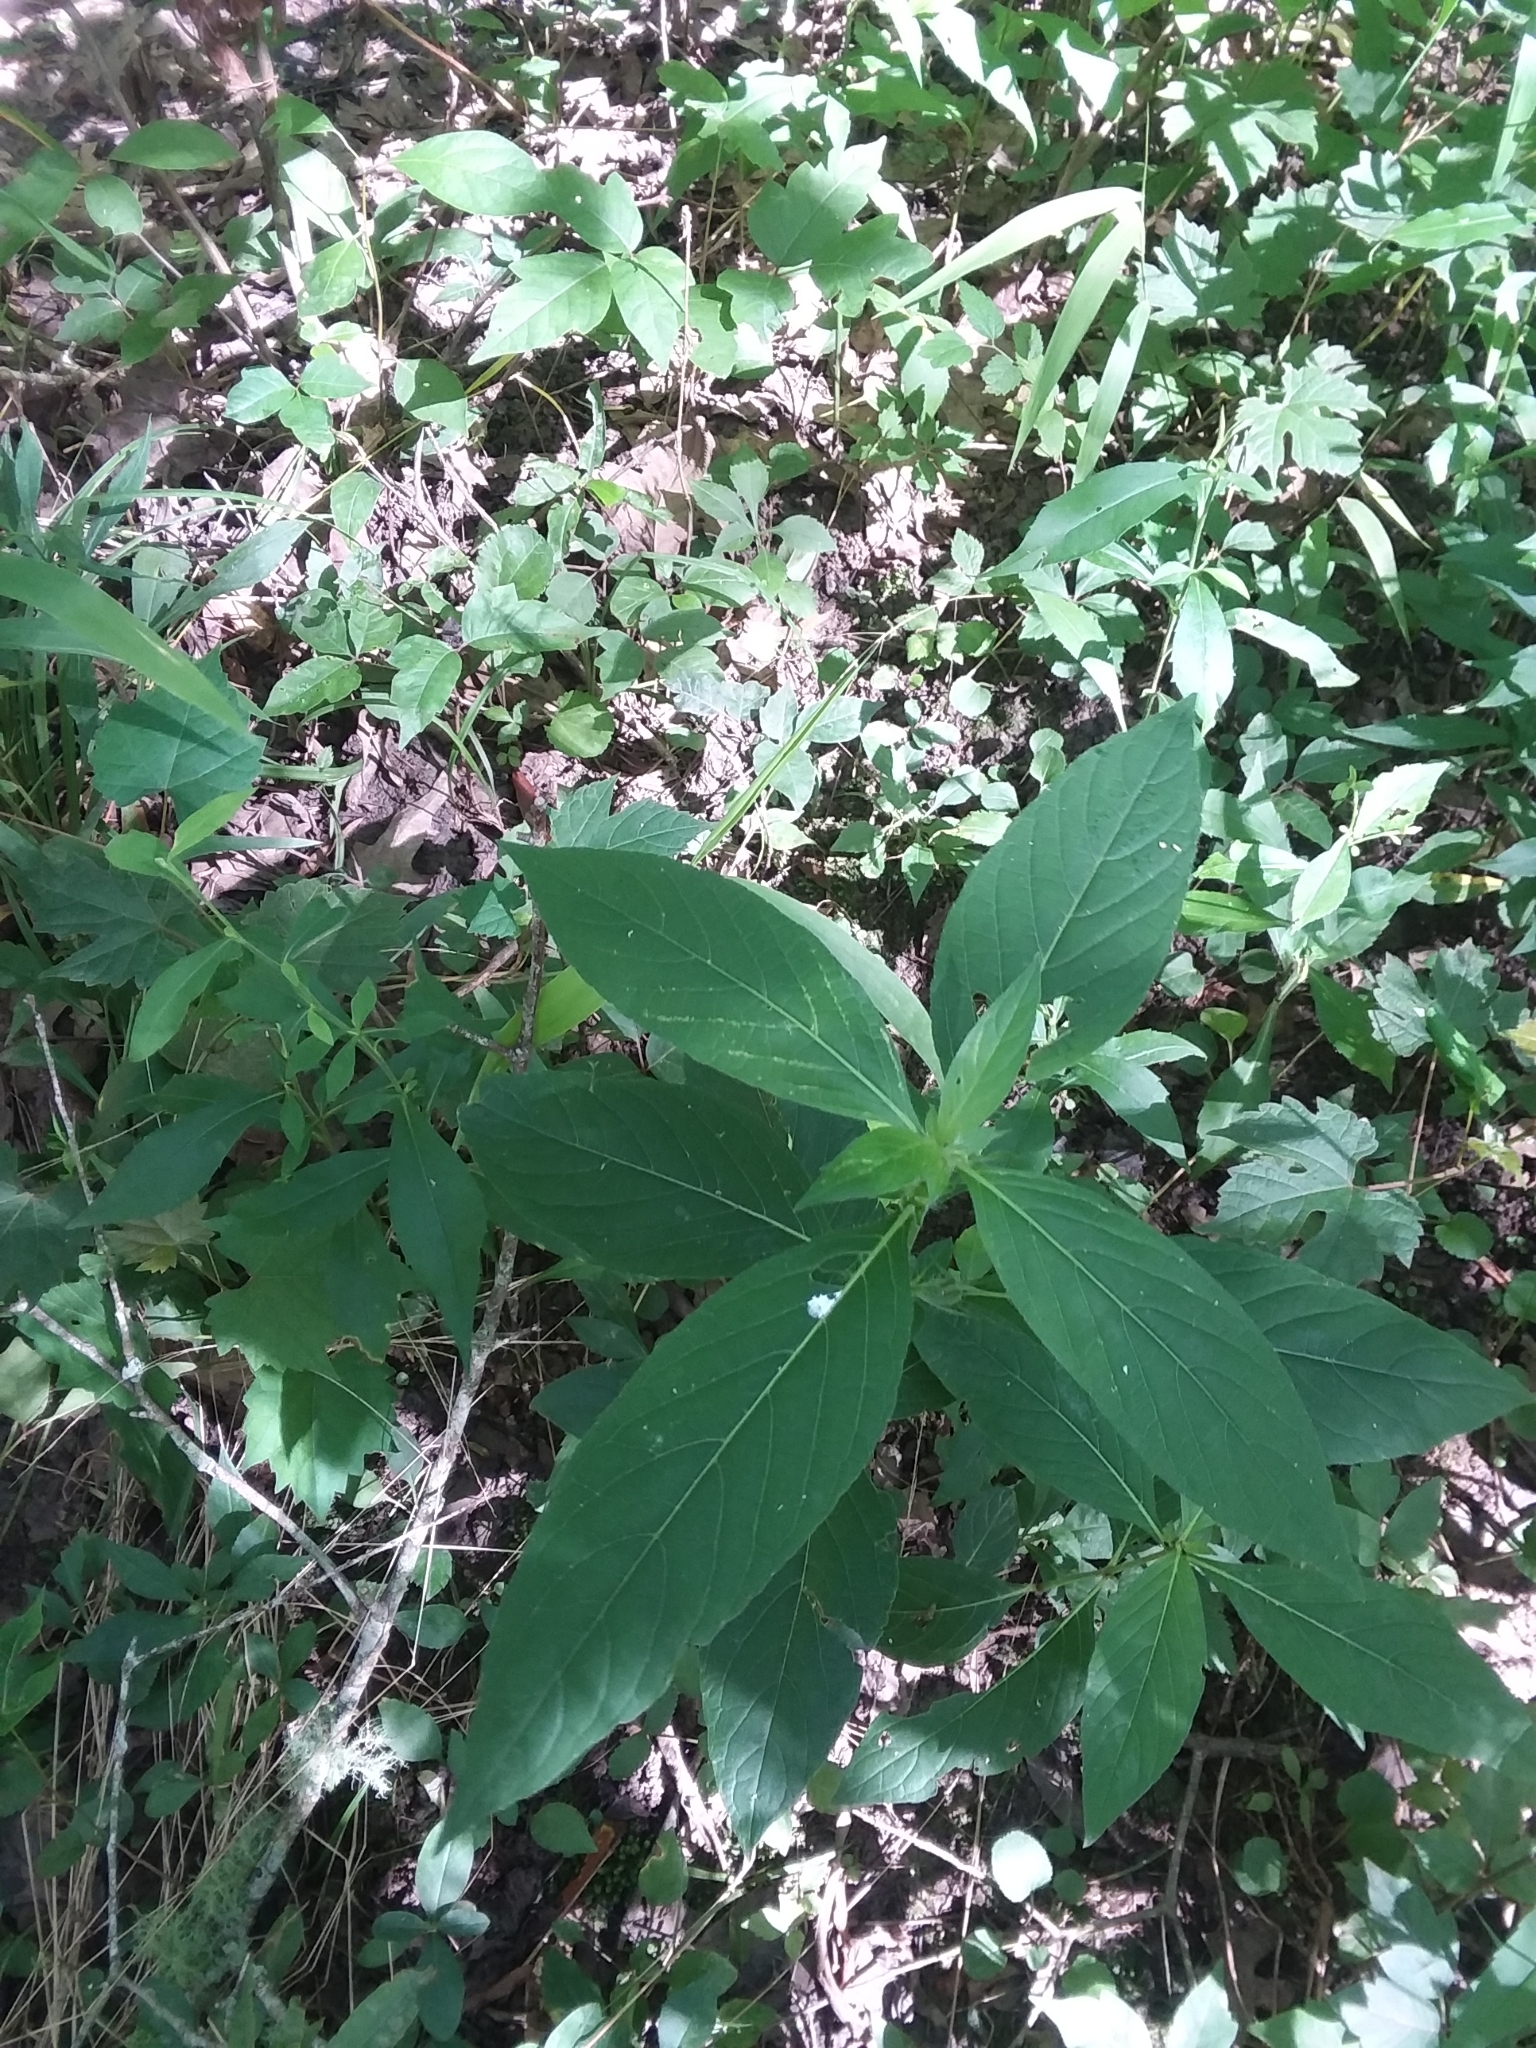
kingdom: Plantae
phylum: Tracheophyta
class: Magnoliopsida
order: Lamiales
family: Acanthaceae
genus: Ruellia
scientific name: Ruellia strepens
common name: Limestone wild petunia
